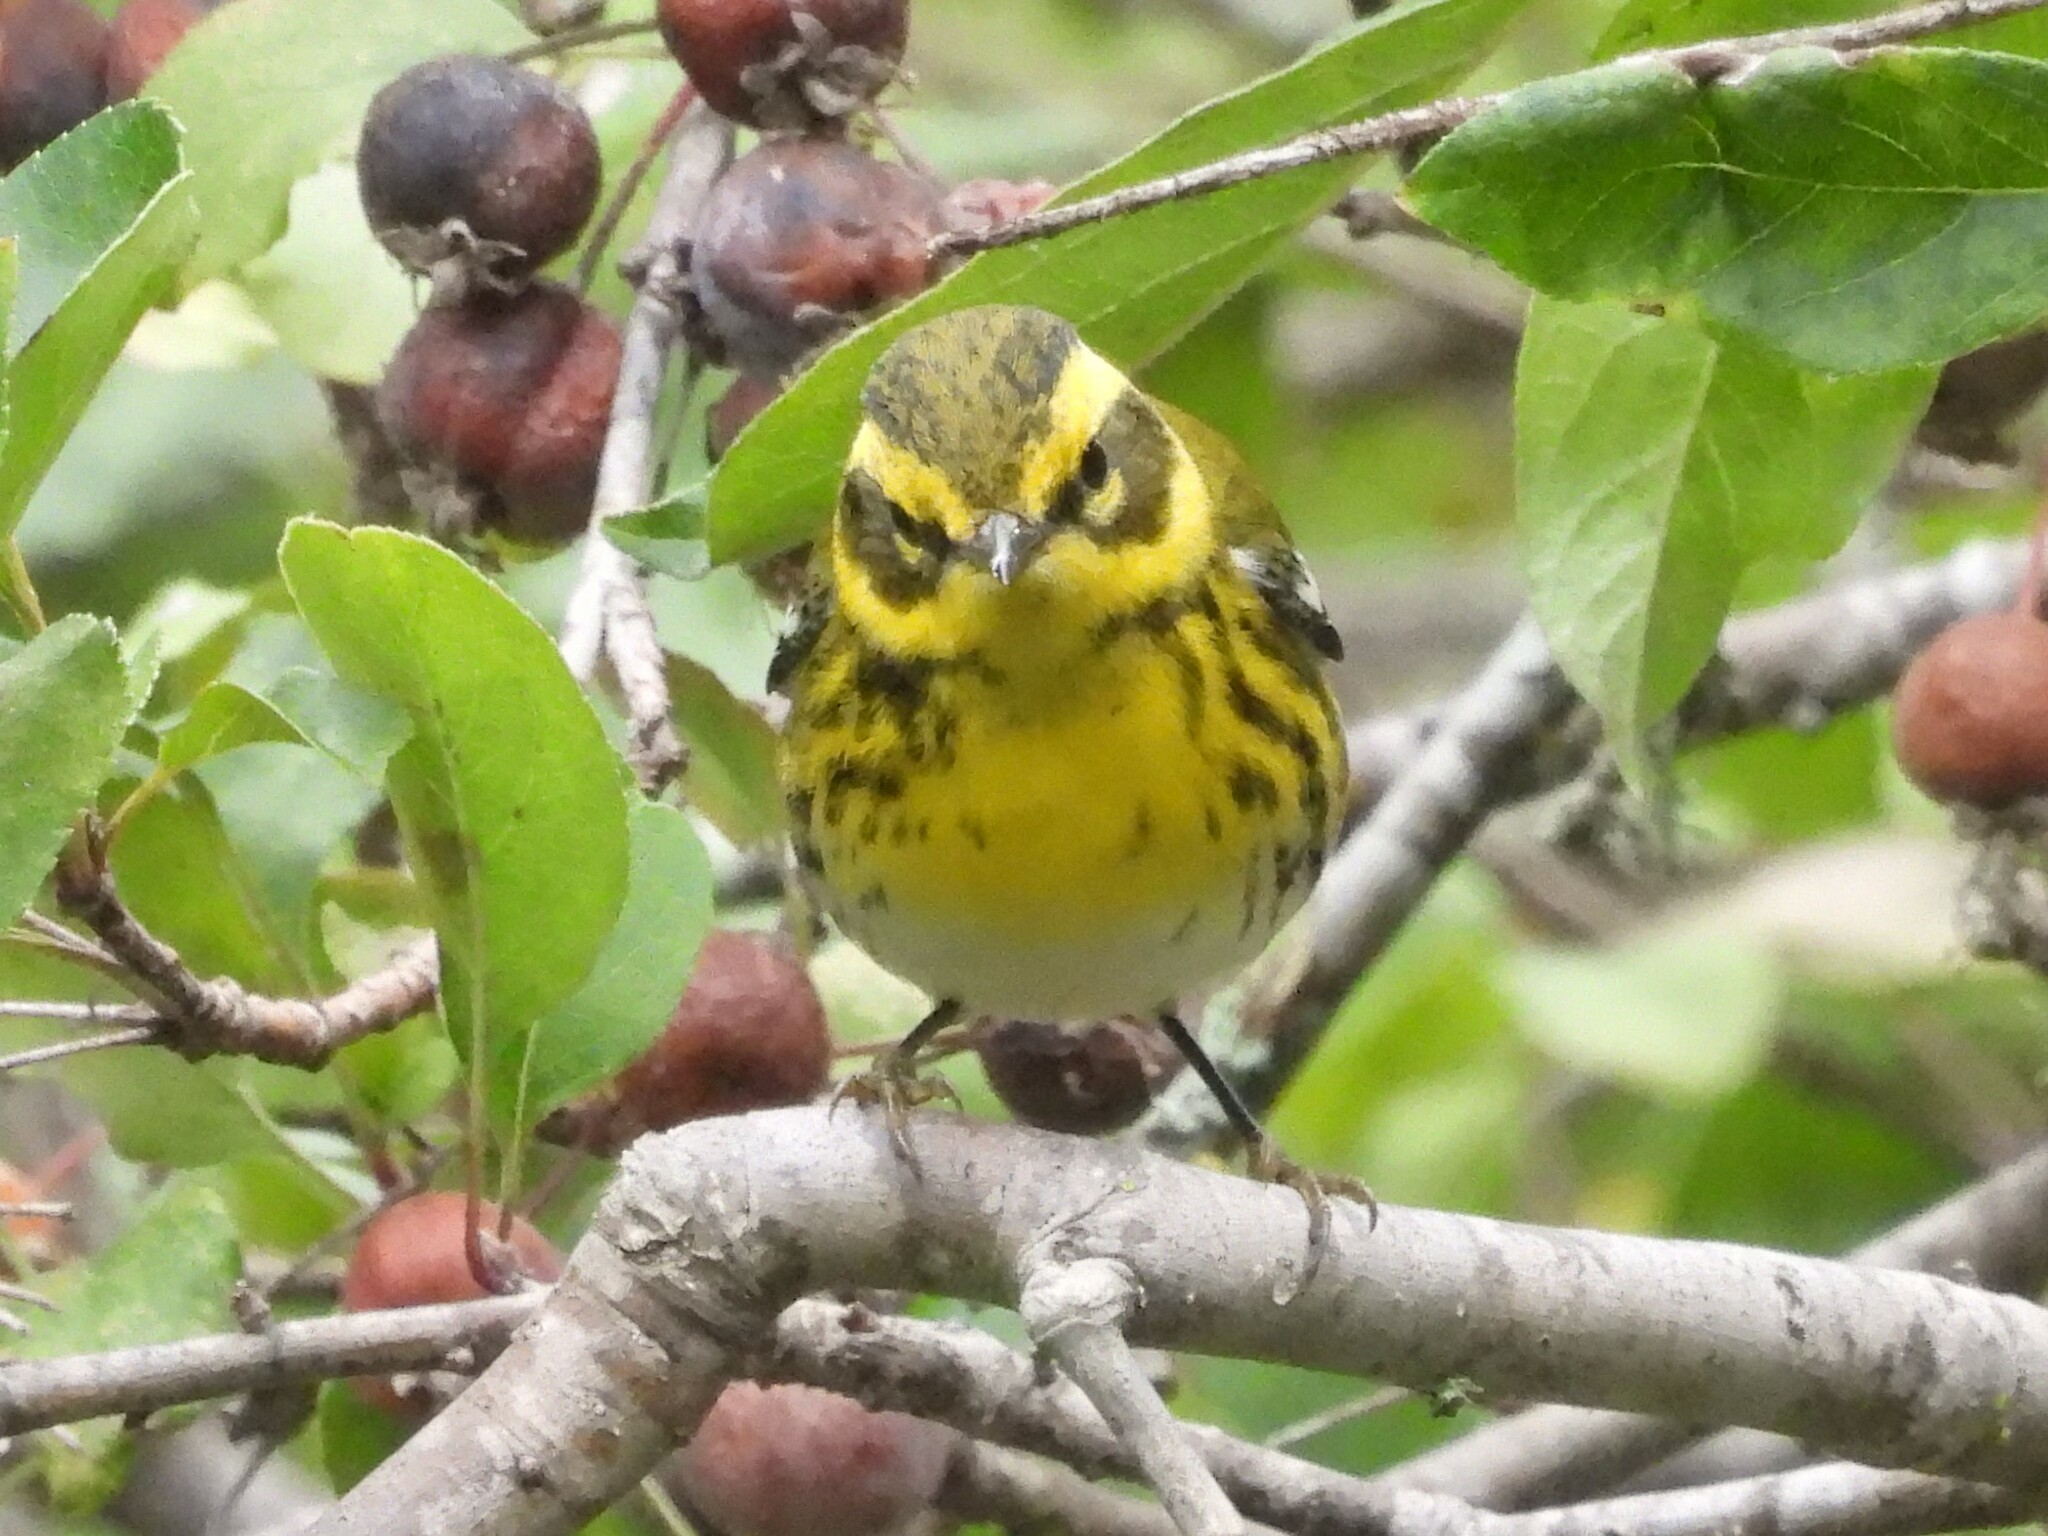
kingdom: Animalia
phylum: Chordata
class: Aves
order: Passeriformes
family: Parulidae
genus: Setophaga
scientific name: Setophaga townsendi
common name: Townsend's warbler
